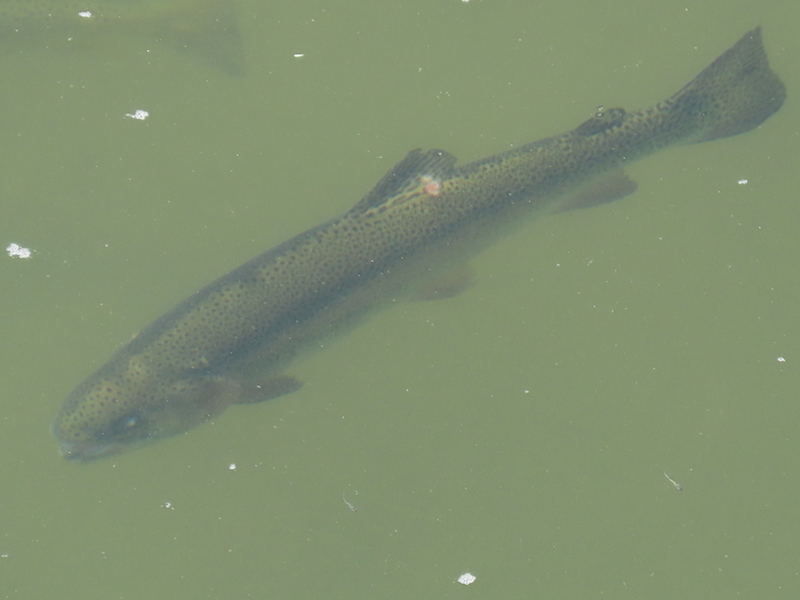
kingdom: Animalia
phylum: Chordata
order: Salmoniformes
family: Salmonidae
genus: Oncorhynchus
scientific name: Oncorhynchus mykiss
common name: Rainbow trout
